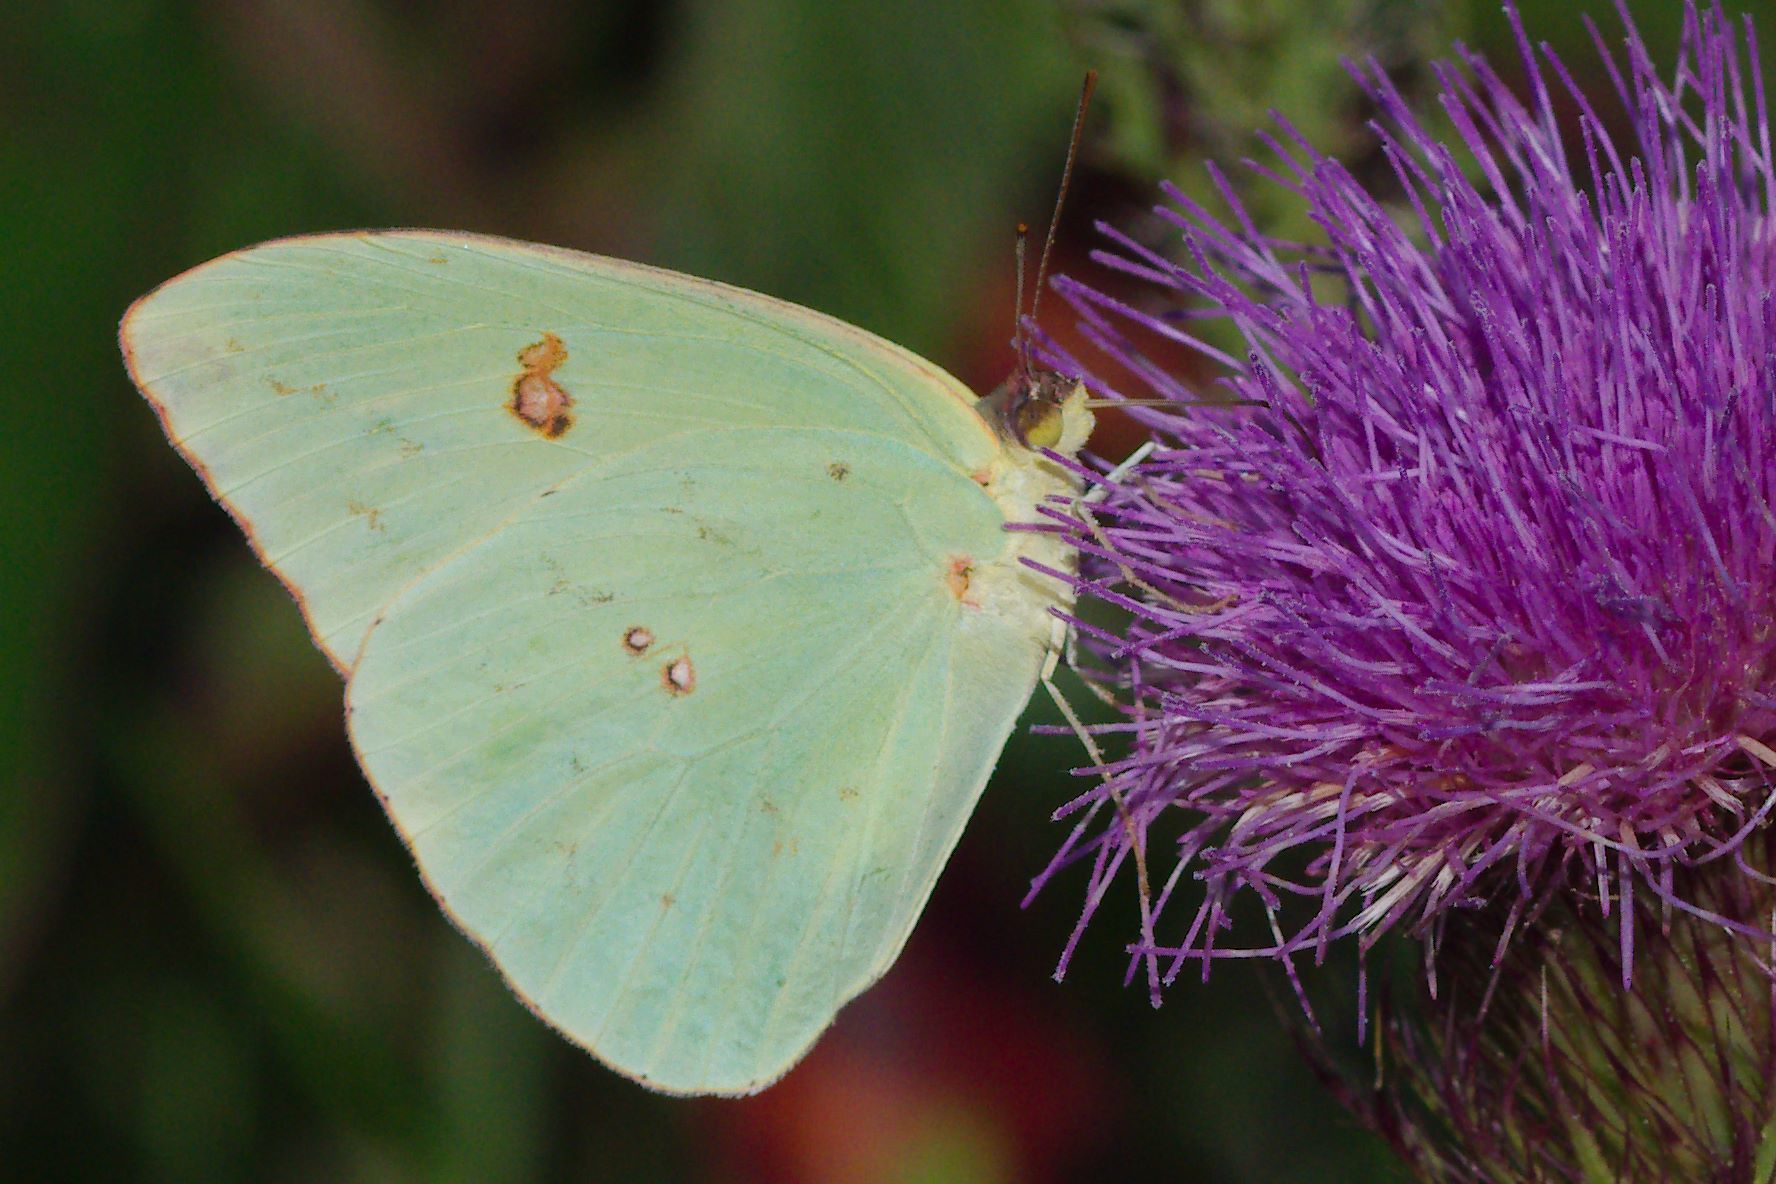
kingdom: Animalia
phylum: Arthropoda
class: Insecta
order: Lepidoptera
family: Pieridae
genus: Phoebis
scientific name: Phoebis sennae
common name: Cloudless sulphur
